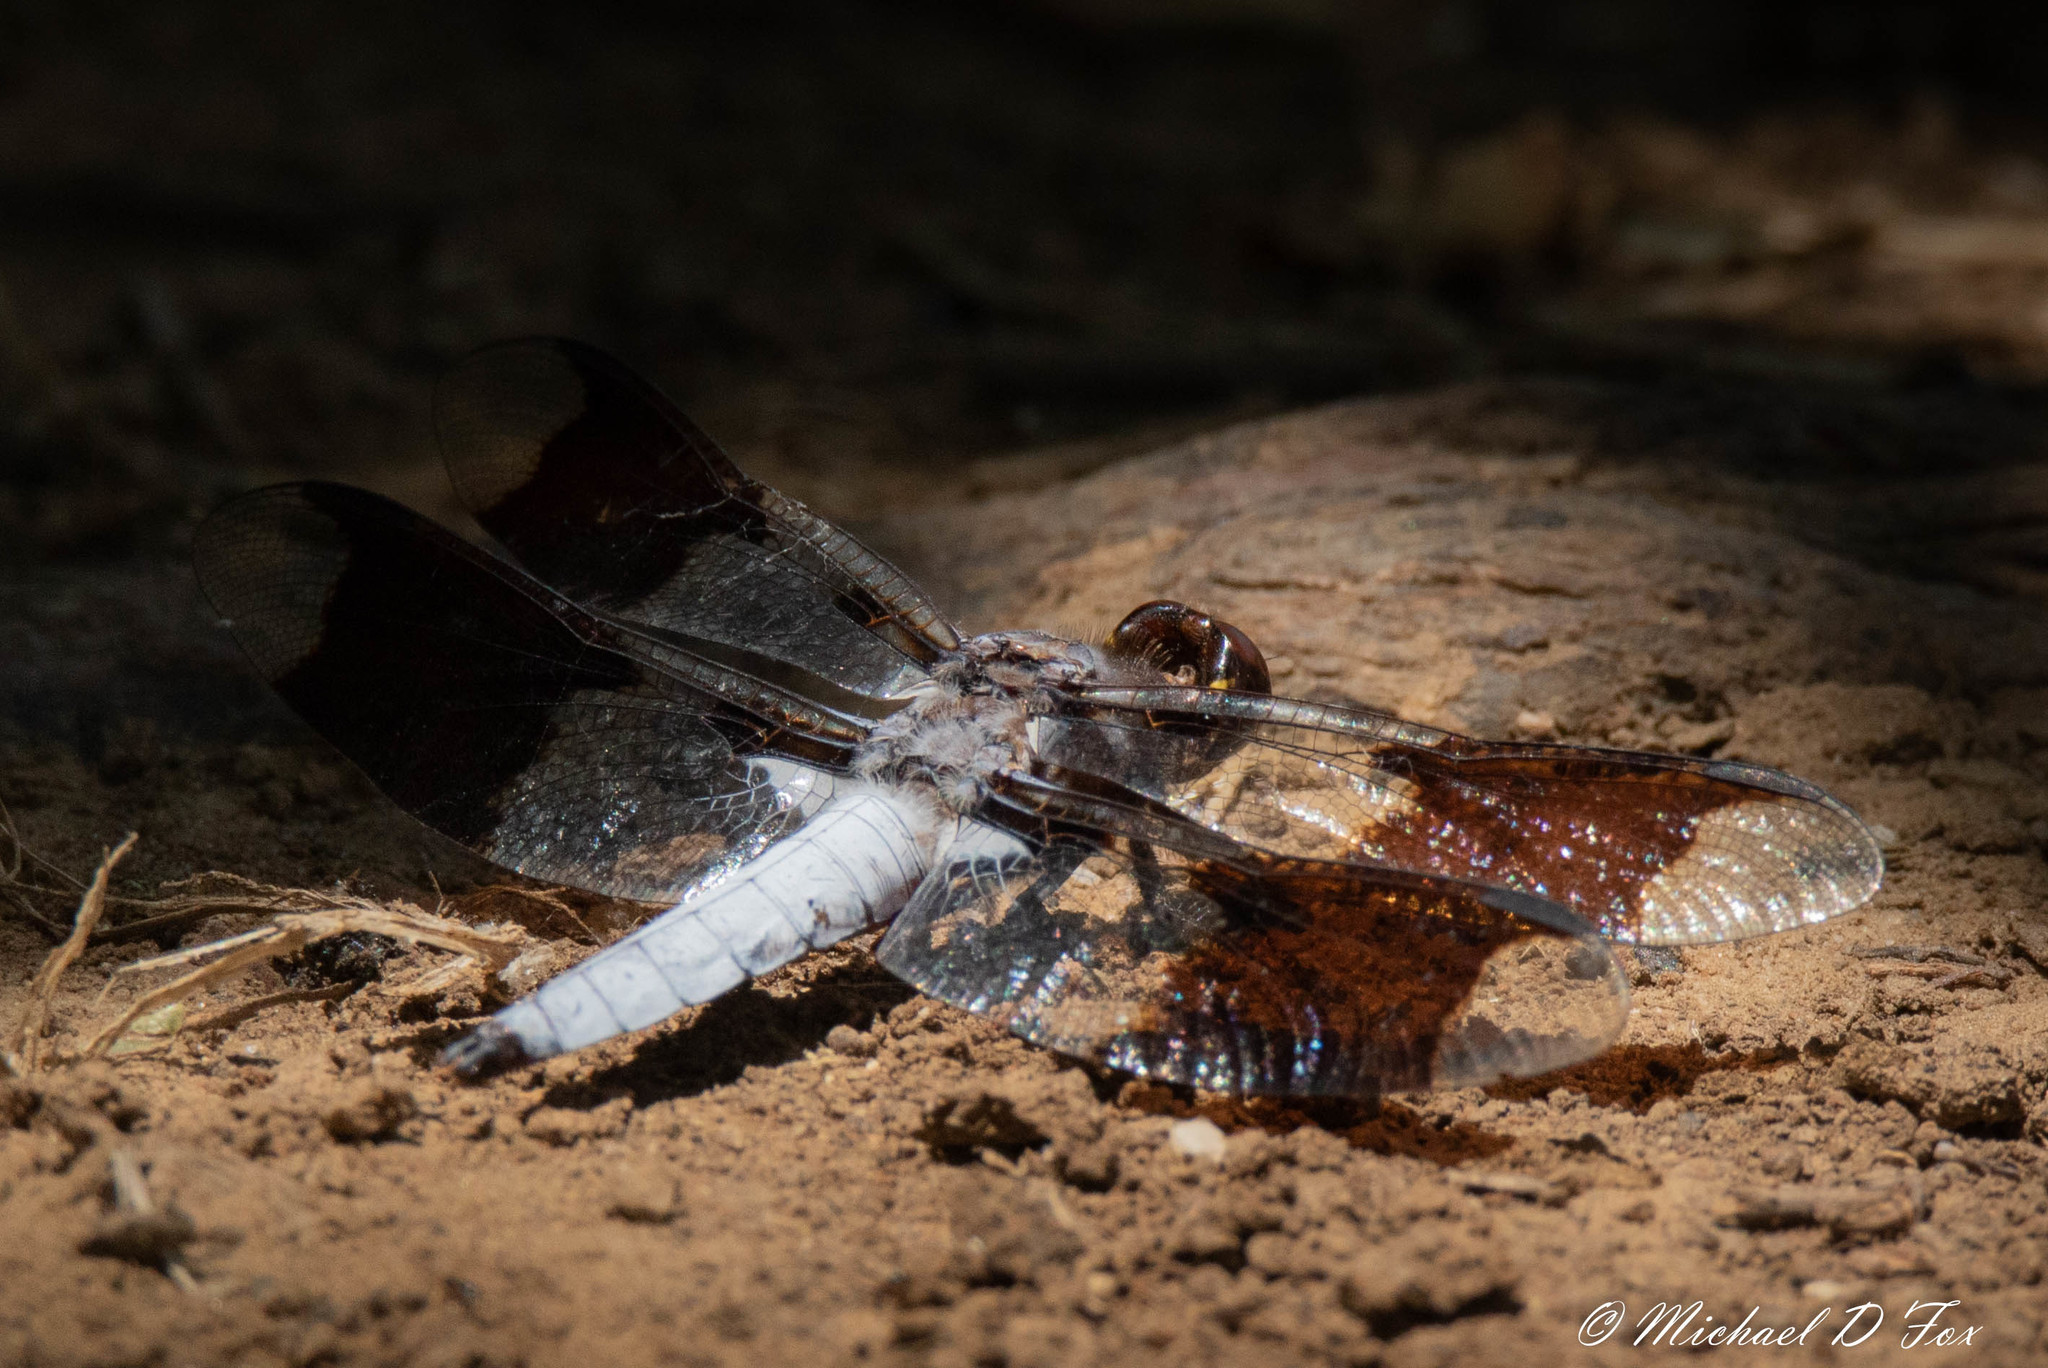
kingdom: Animalia
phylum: Arthropoda
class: Insecta
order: Odonata
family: Libellulidae
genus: Plathemis
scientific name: Plathemis lydia
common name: Common whitetail
